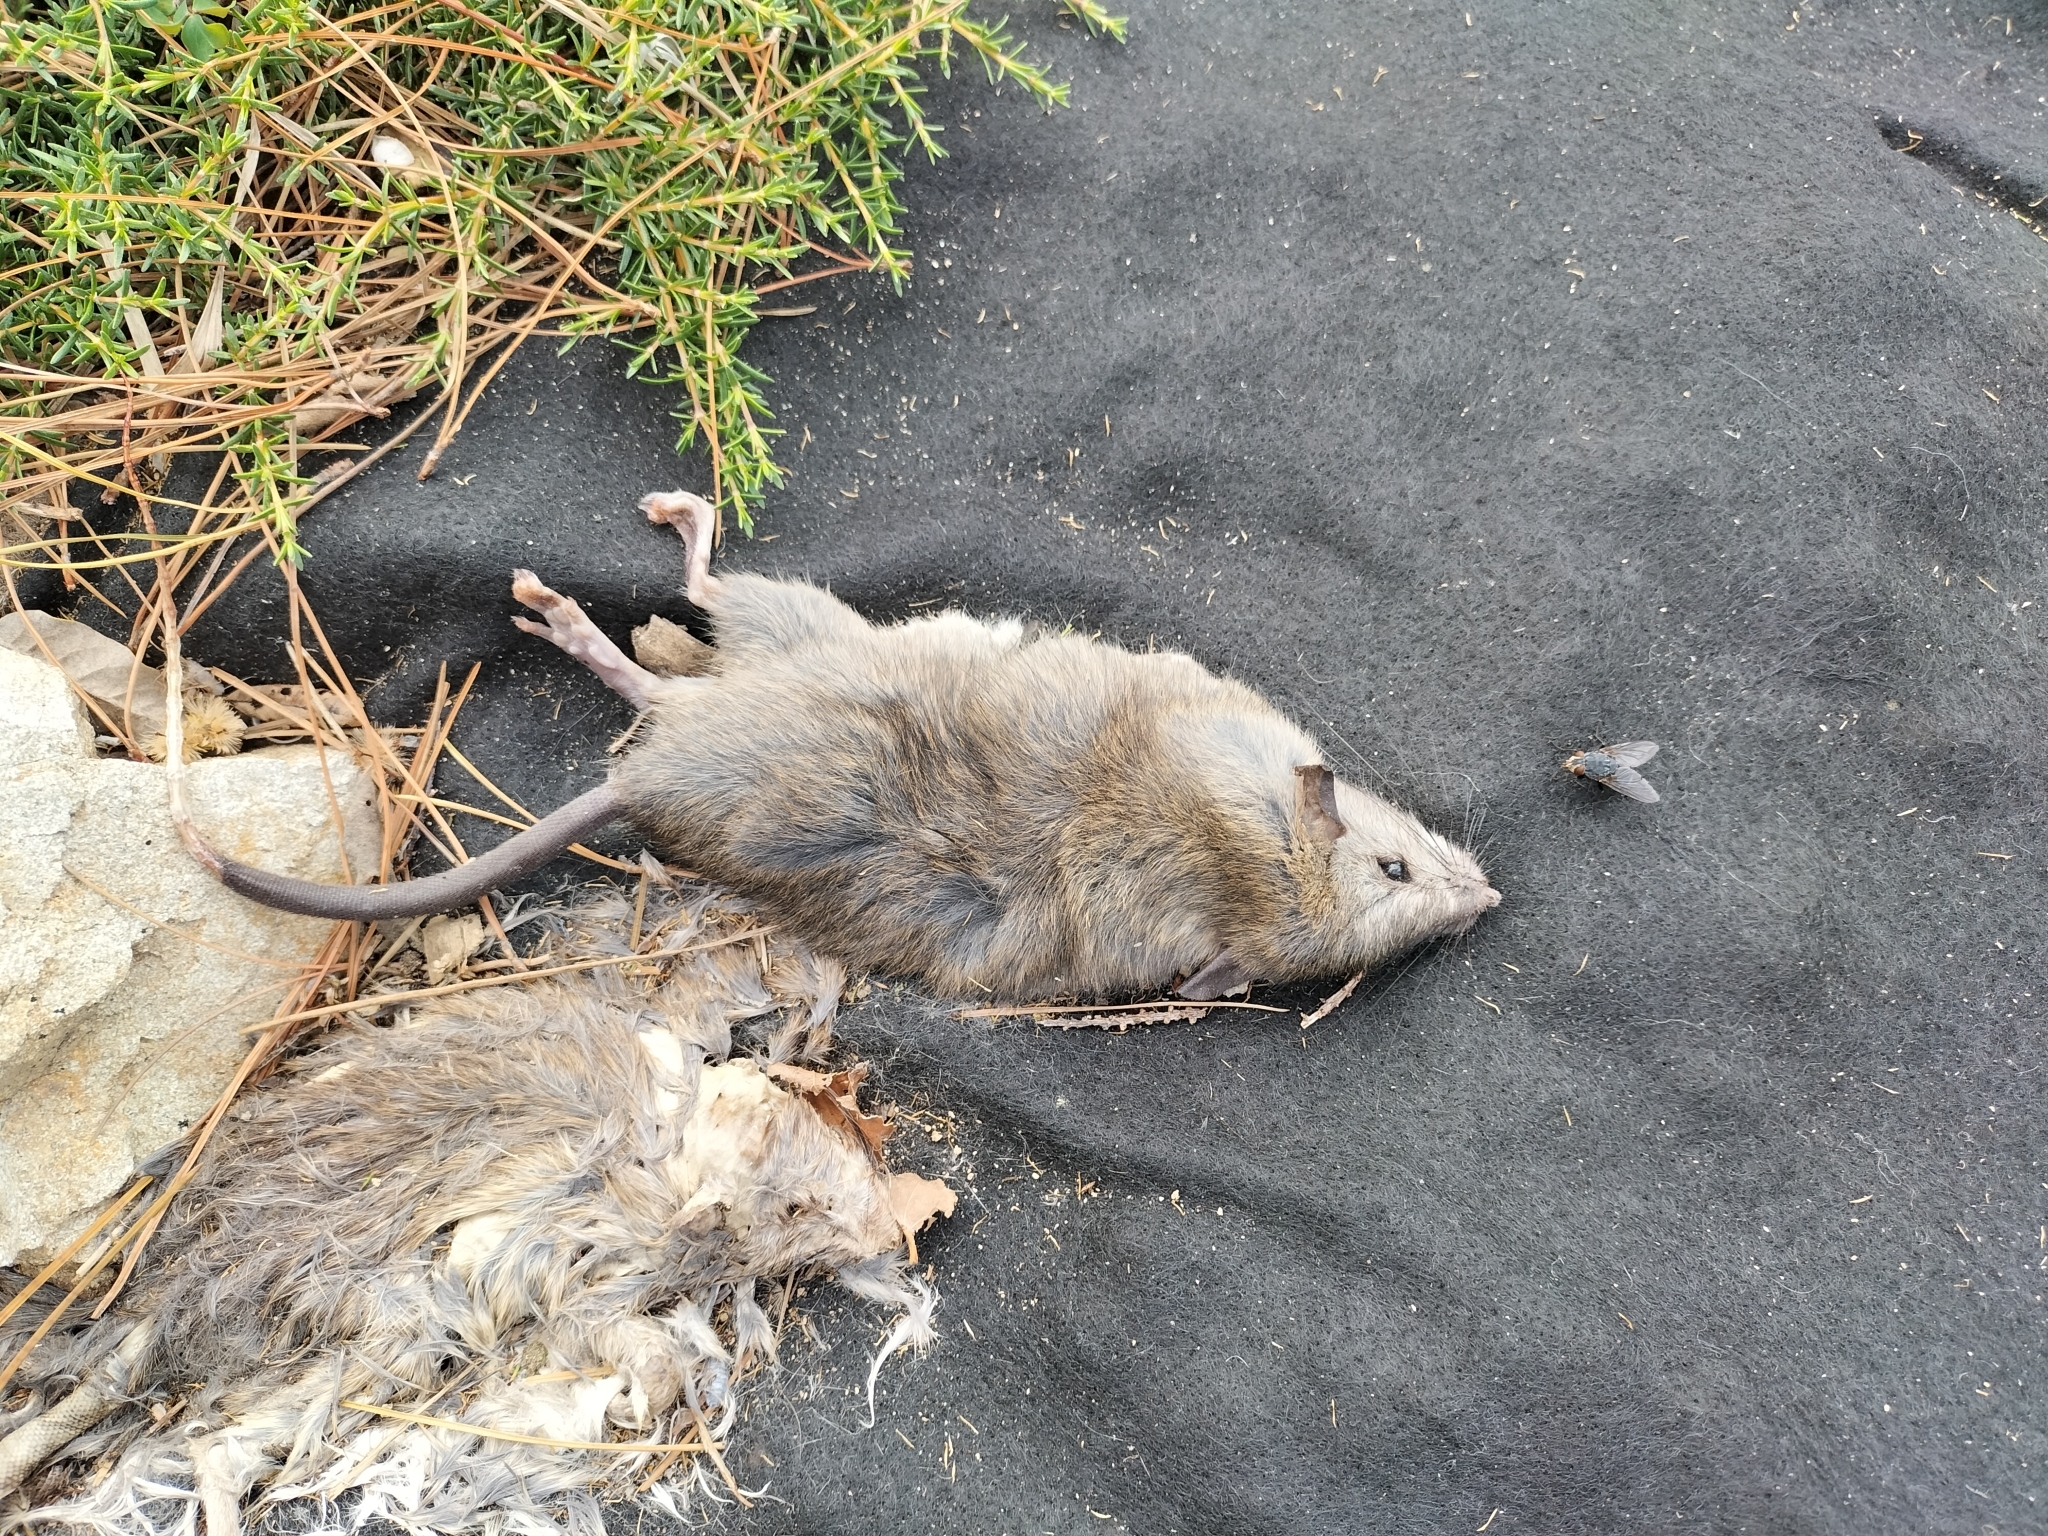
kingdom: Animalia
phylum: Chordata
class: Mammalia
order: Rodentia
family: Muridae
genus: Rattus
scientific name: Rattus rattus
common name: Black rat
